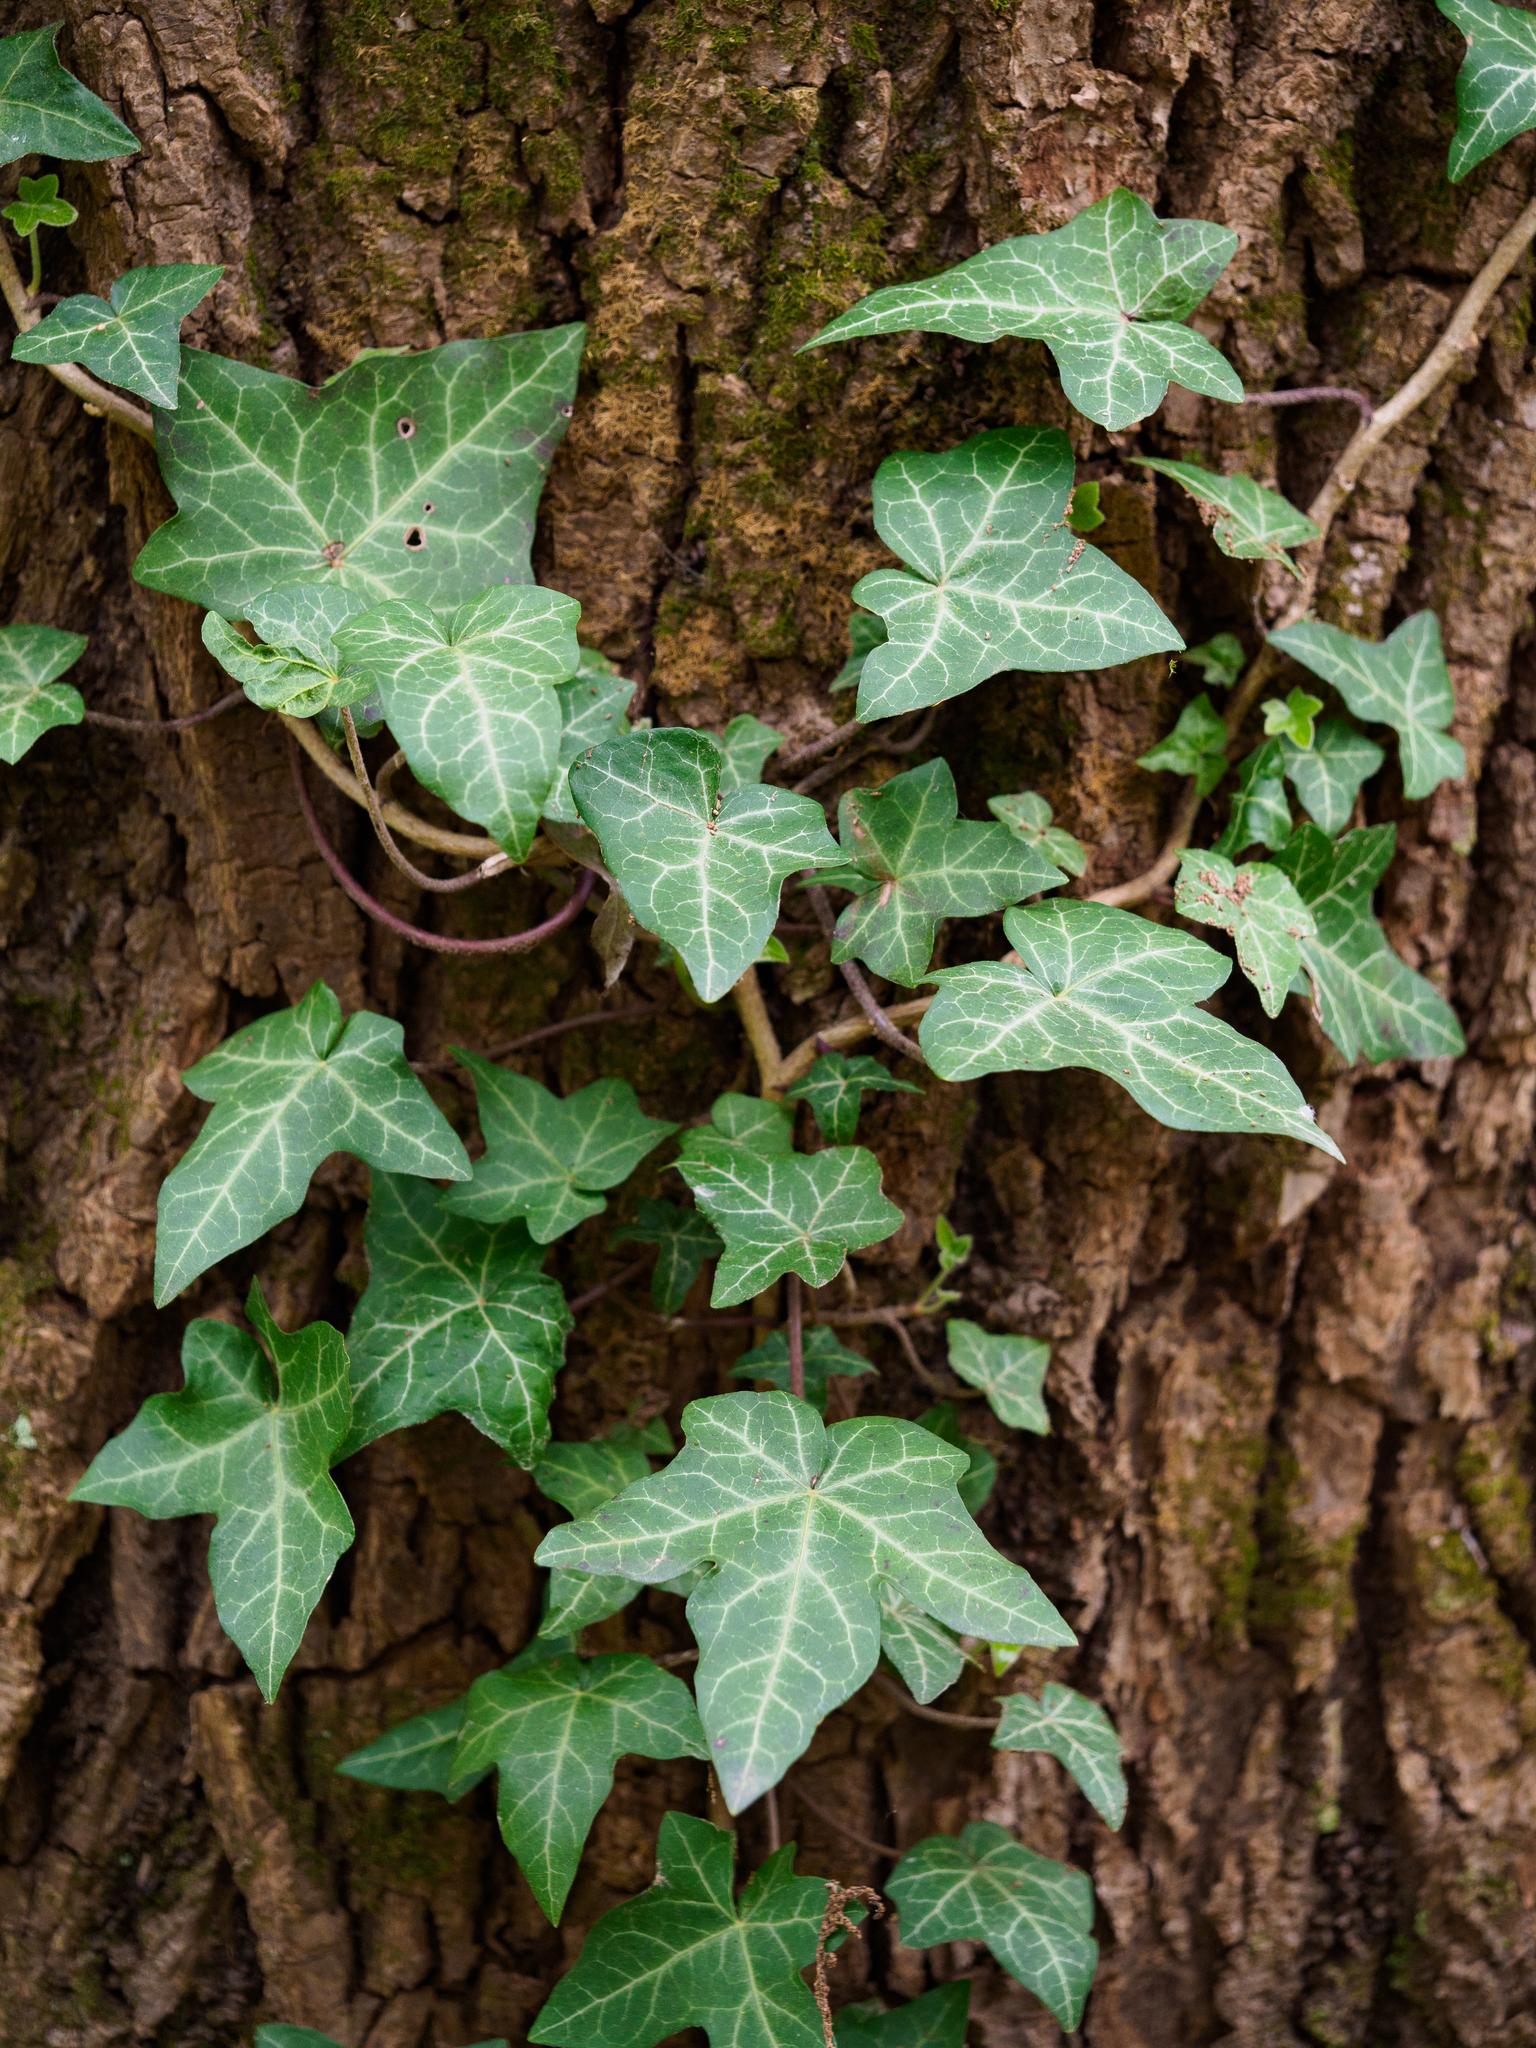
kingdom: Plantae
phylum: Tracheophyta
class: Magnoliopsida
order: Apiales
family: Araliaceae
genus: Hedera
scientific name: Hedera helix
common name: Ivy
